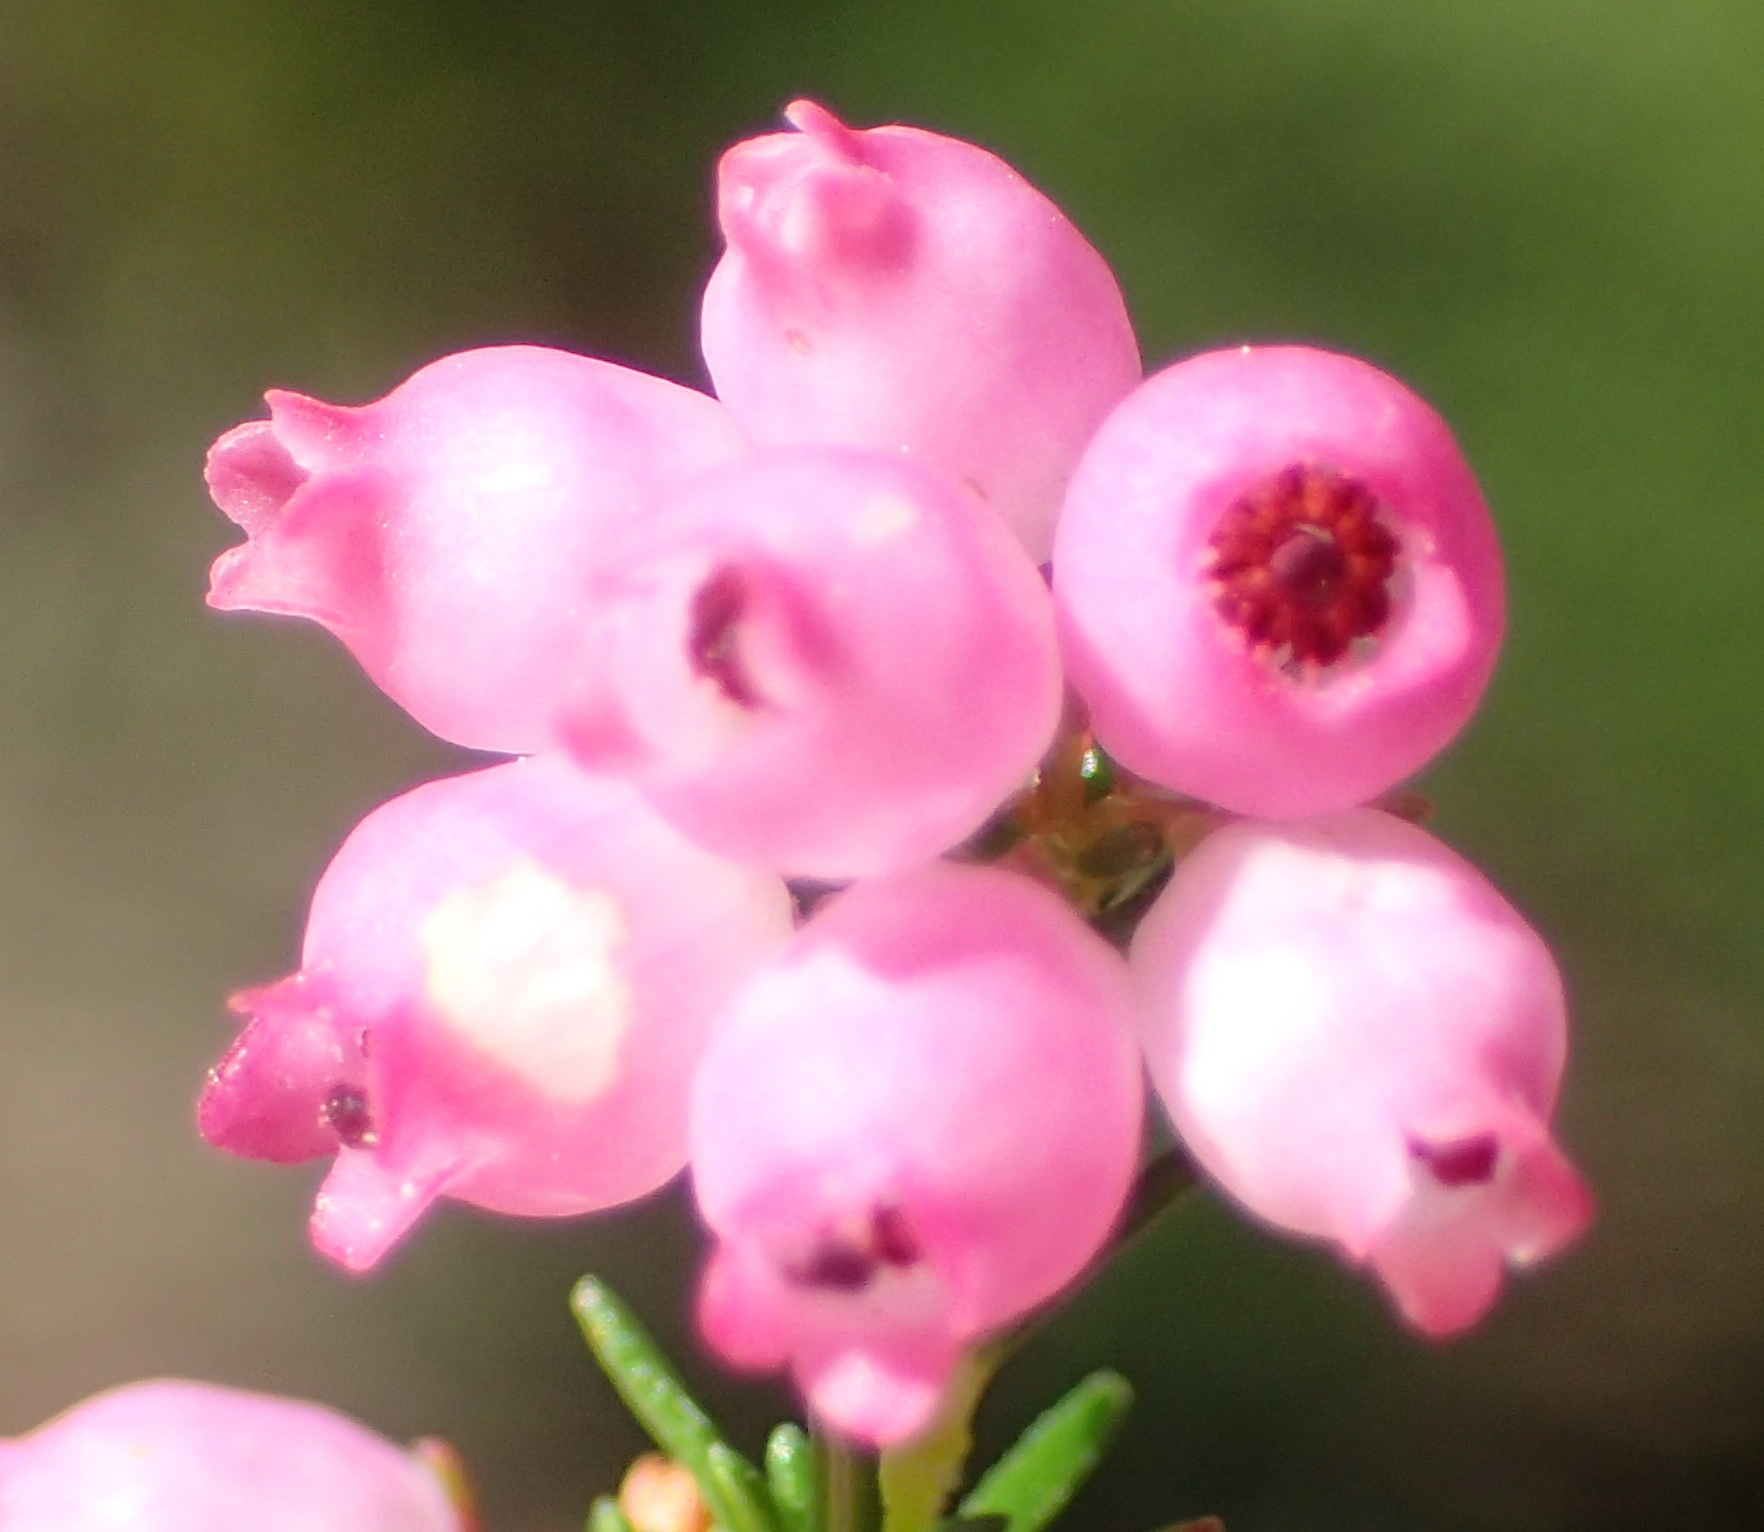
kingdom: Plantae
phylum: Tracheophyta
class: Magnoliopsida
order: Ericales
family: Ericaceae
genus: Erica
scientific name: Erica gracilis
